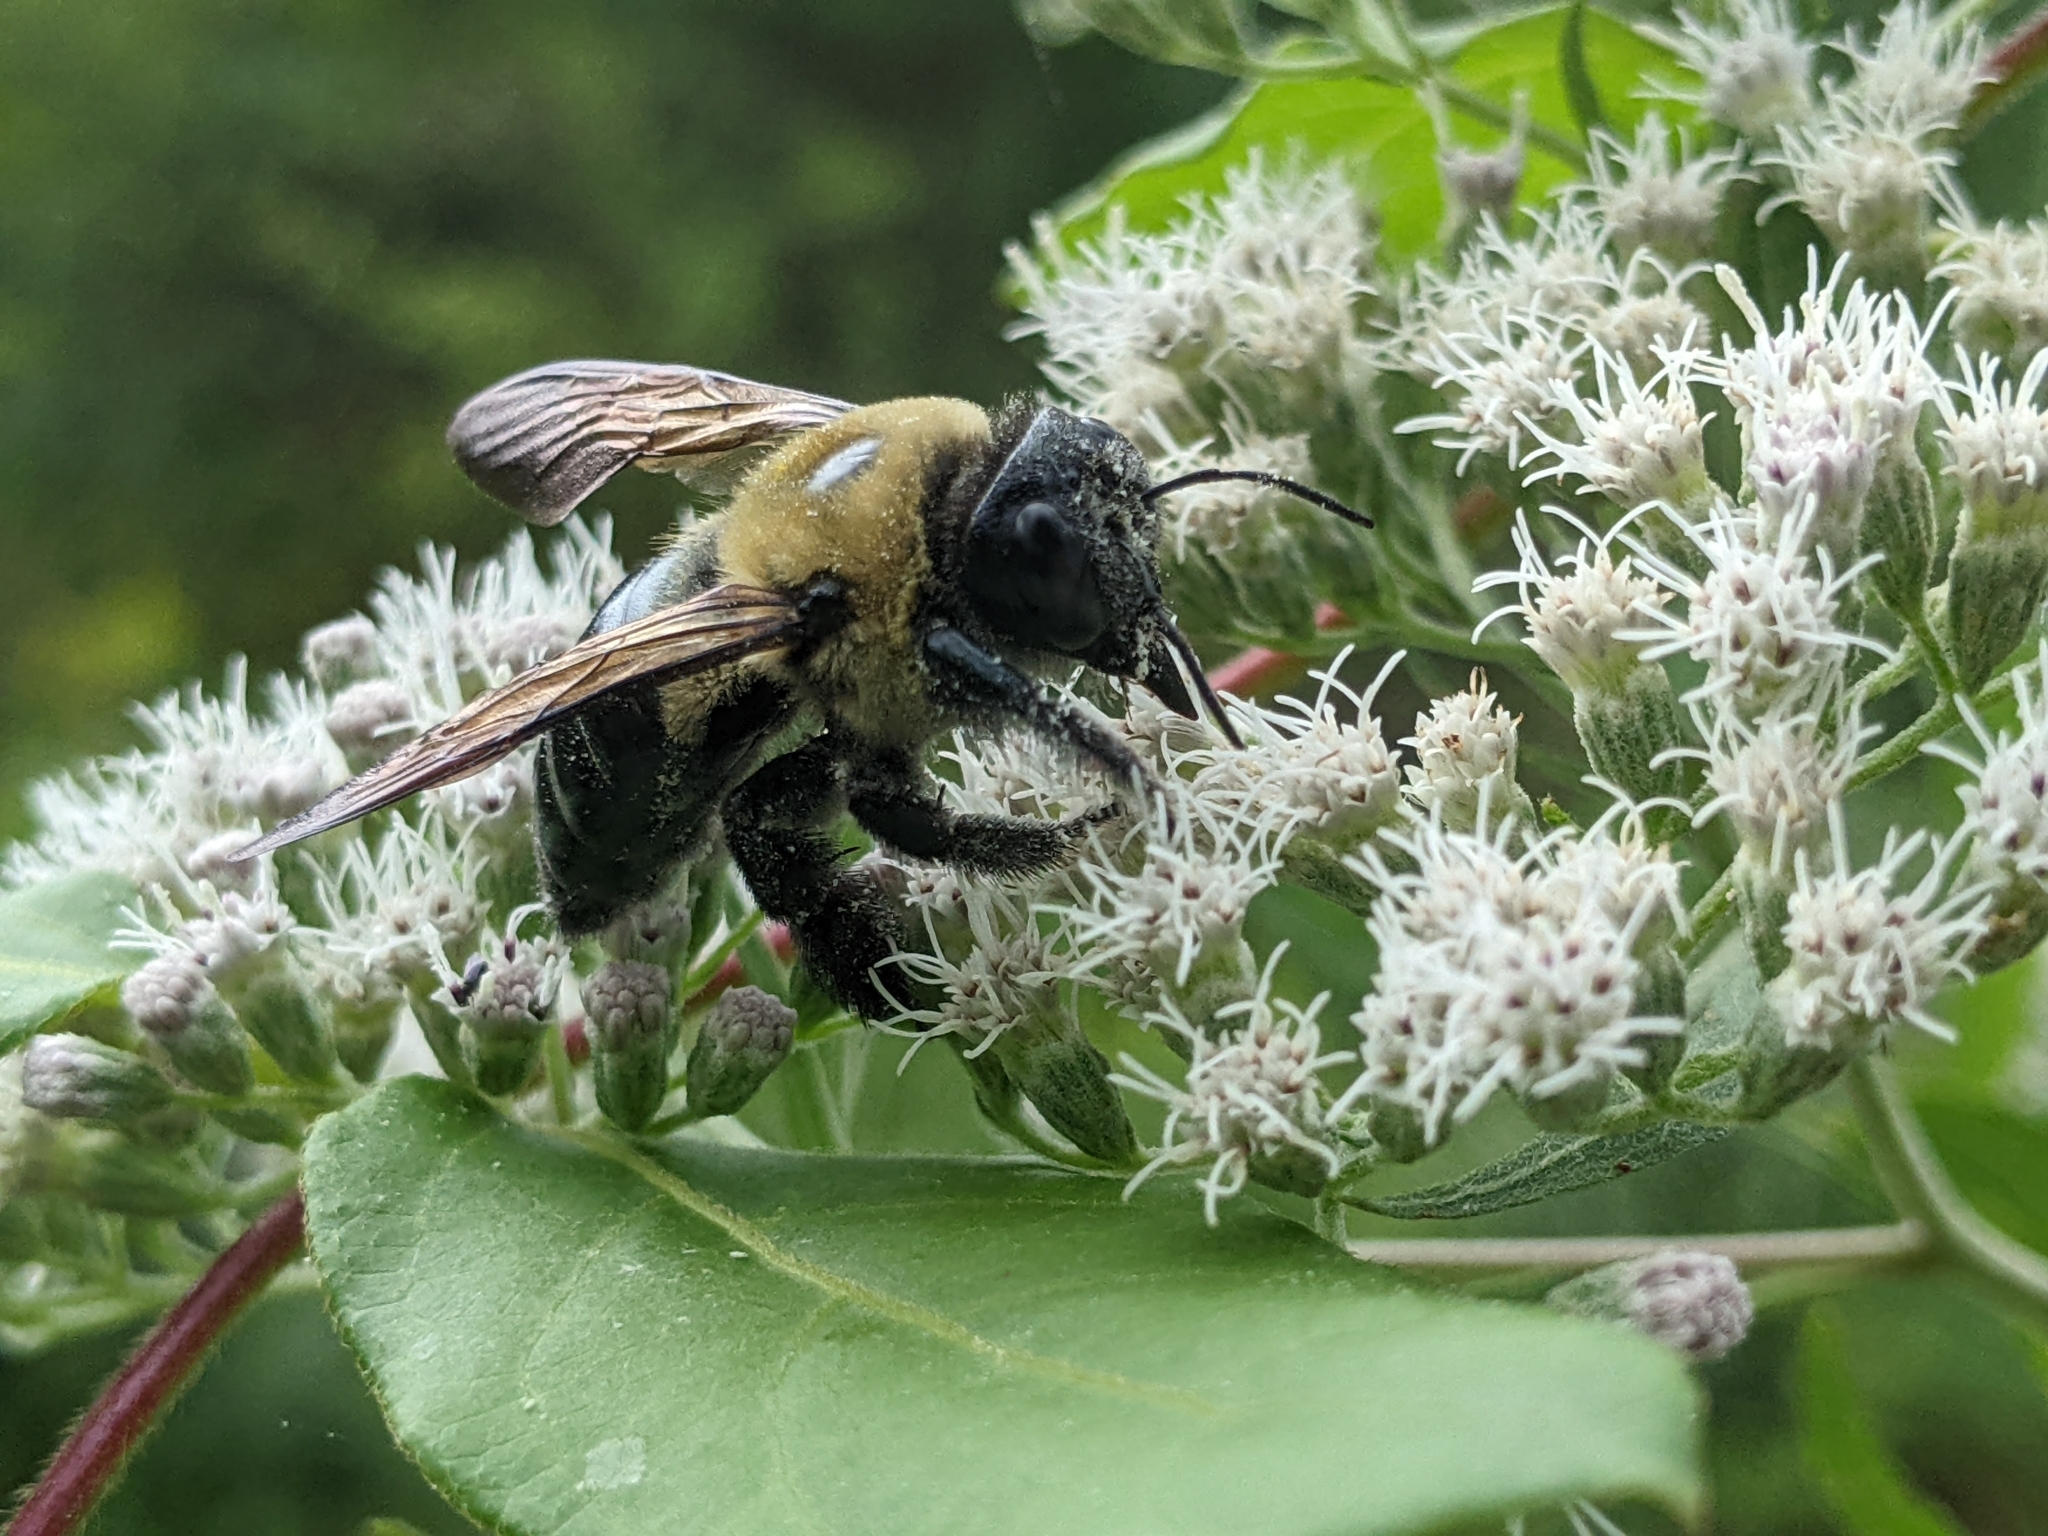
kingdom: Animalia
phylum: Arthropoda
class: Insecta
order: Hymenoptera
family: Apidae
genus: Xylocopa
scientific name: Xylocopa virginica
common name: Carpenter bee
